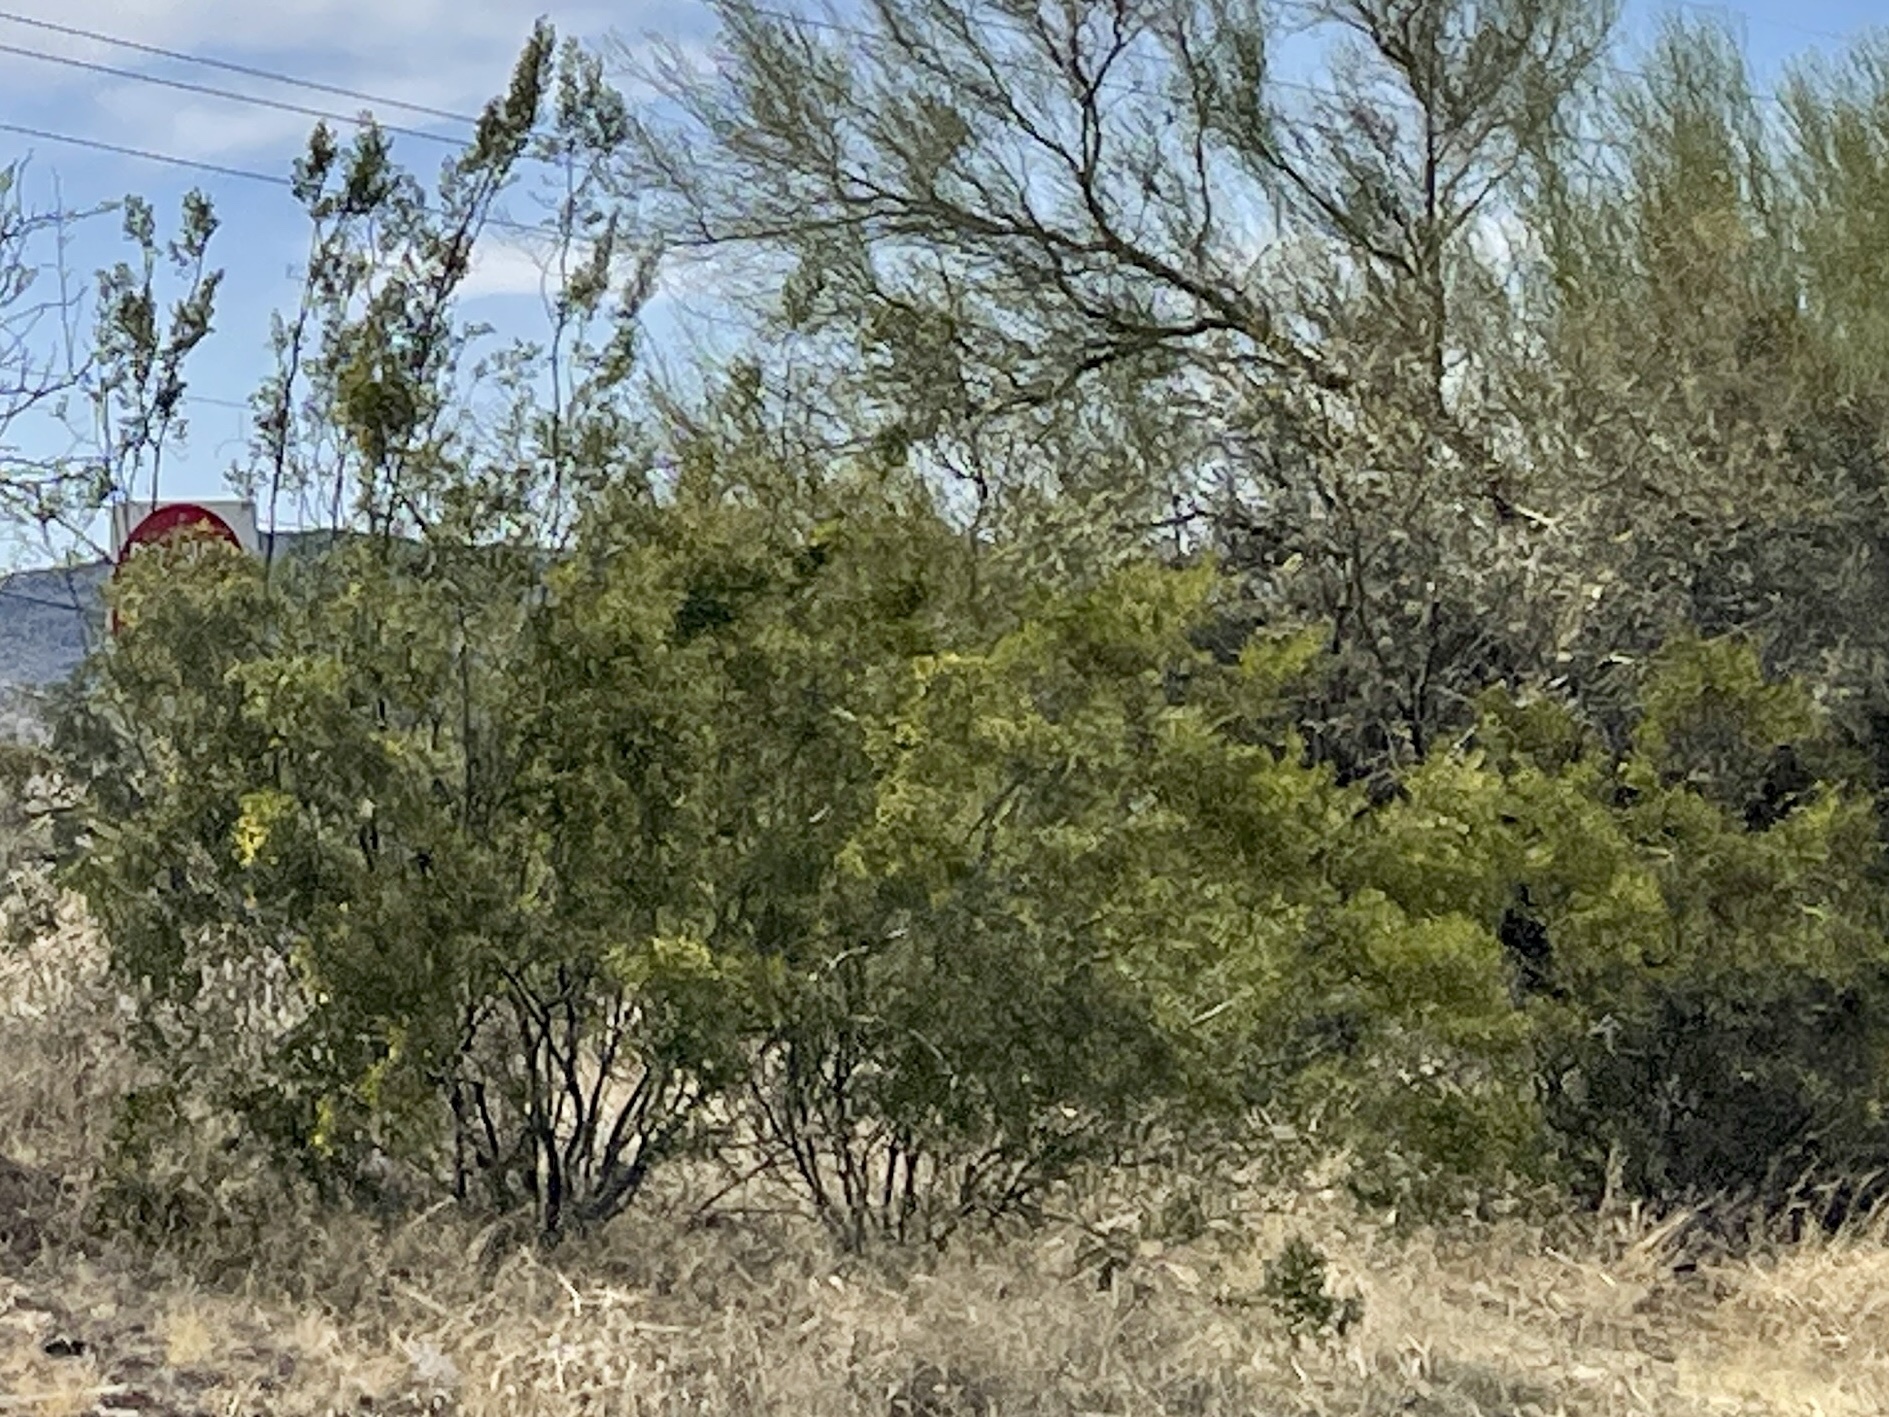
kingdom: Plantae
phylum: Tracheophyta
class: Magnoliopsida
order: Zygophyllales
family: Zygophyllaceae
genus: Larrea
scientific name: Larrea tridentata
